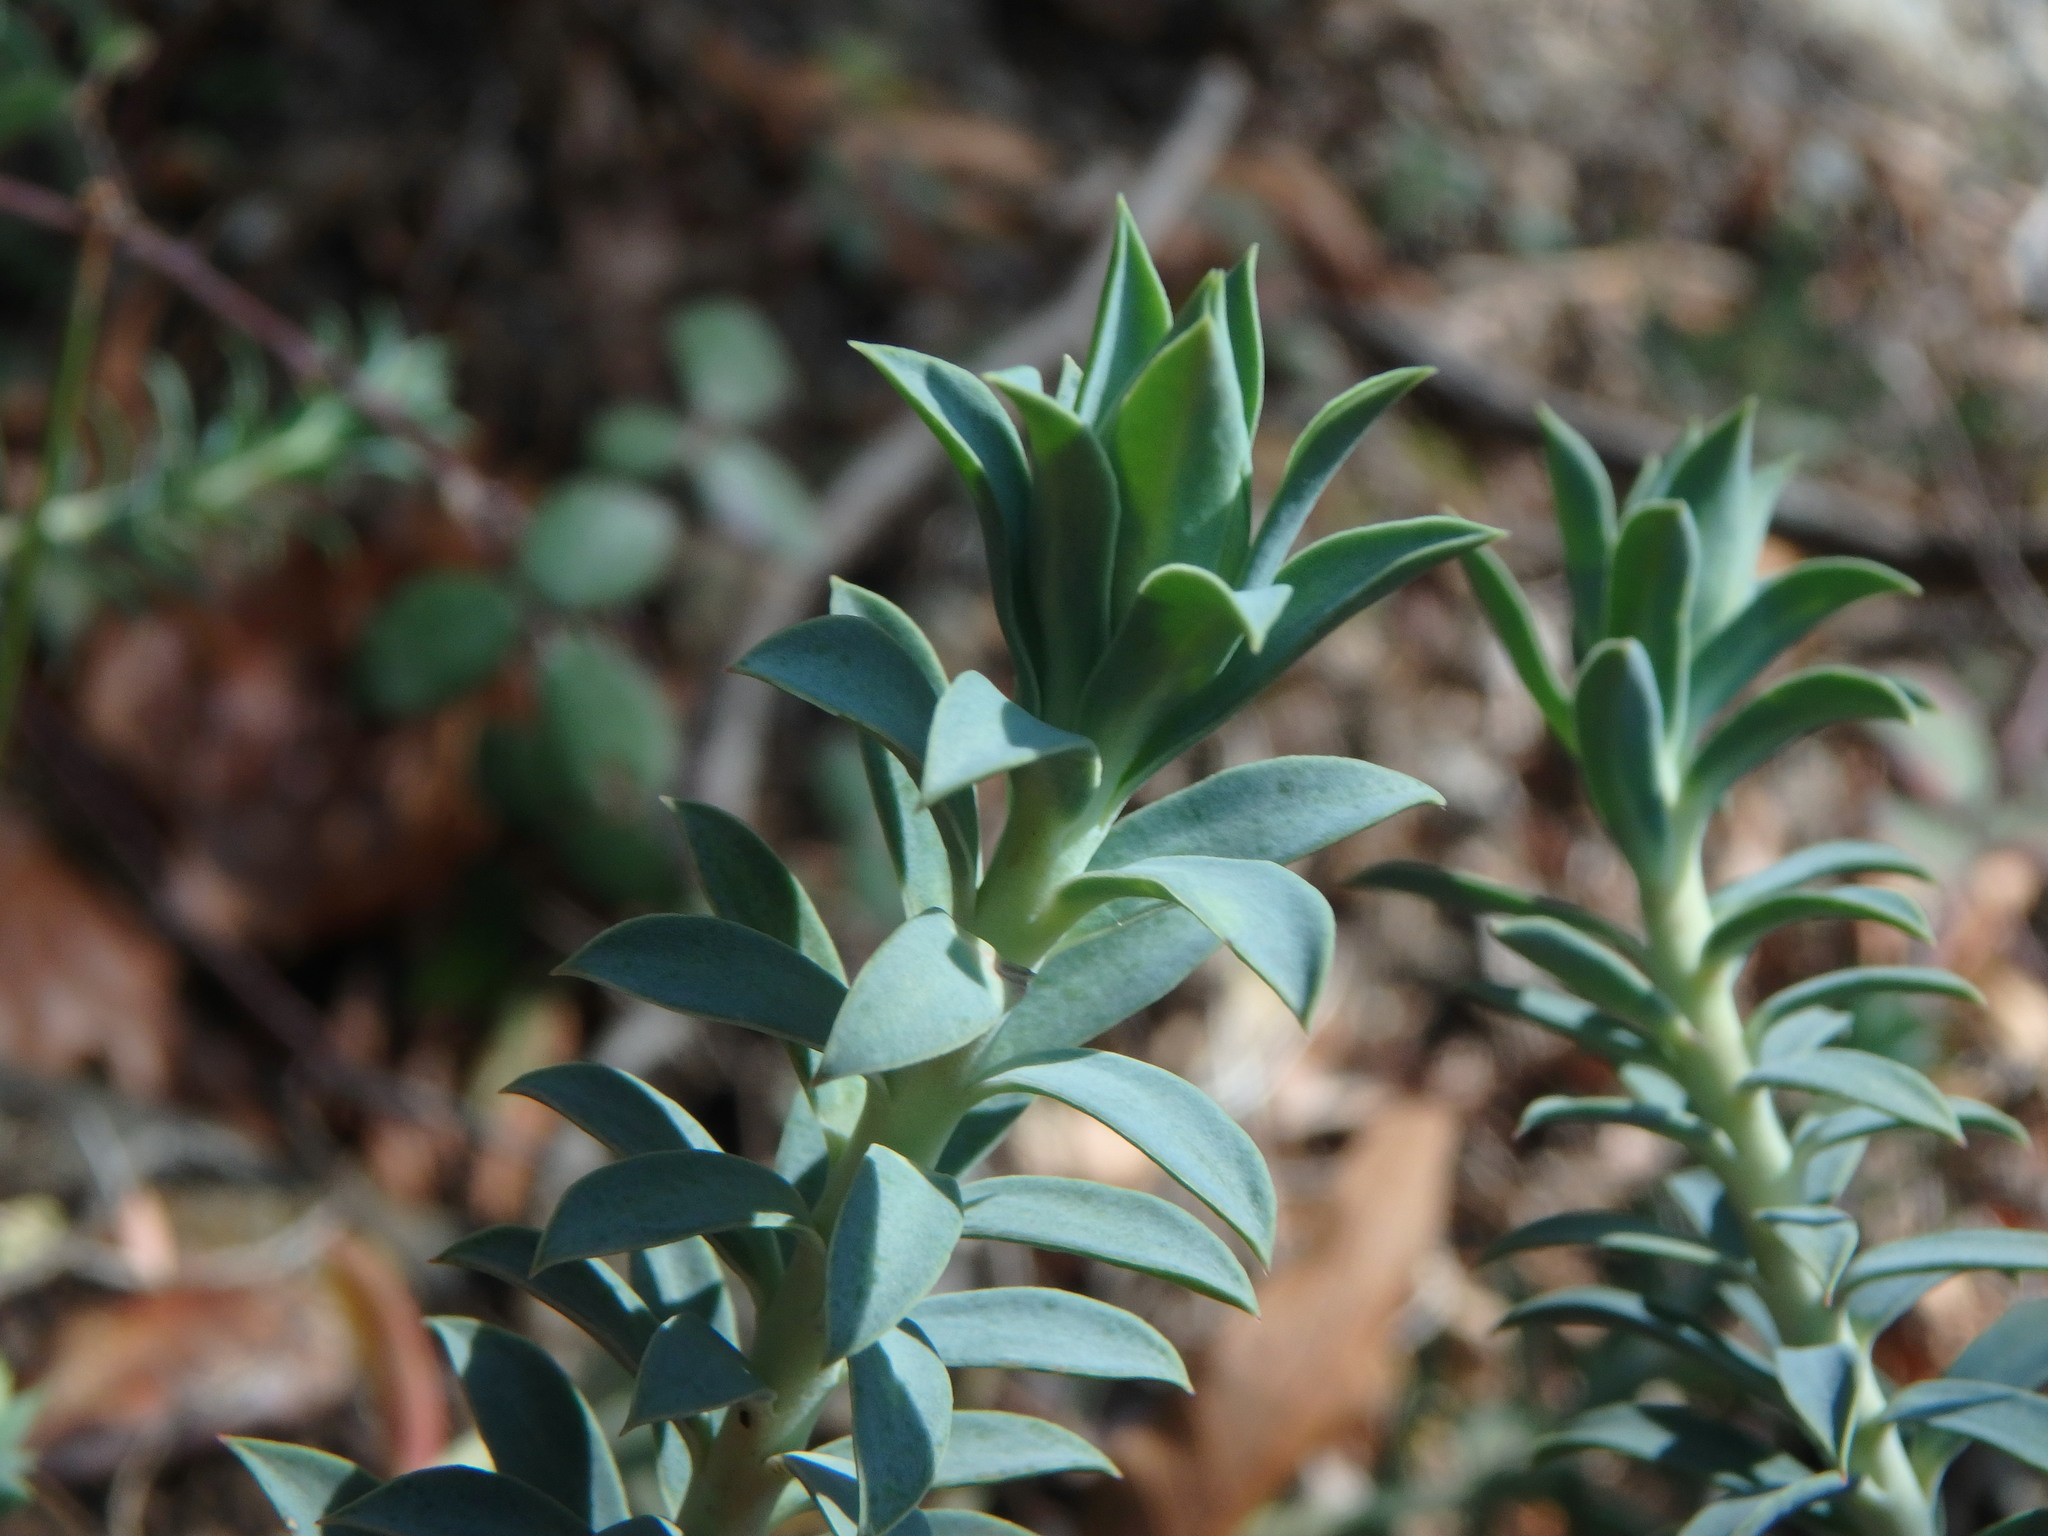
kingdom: Plantae
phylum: Tracheophyta
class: Magnoliopsida
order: Malpighiales
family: Euphorbiaceae
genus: Euphorbia
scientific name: Euphorbia veneris
